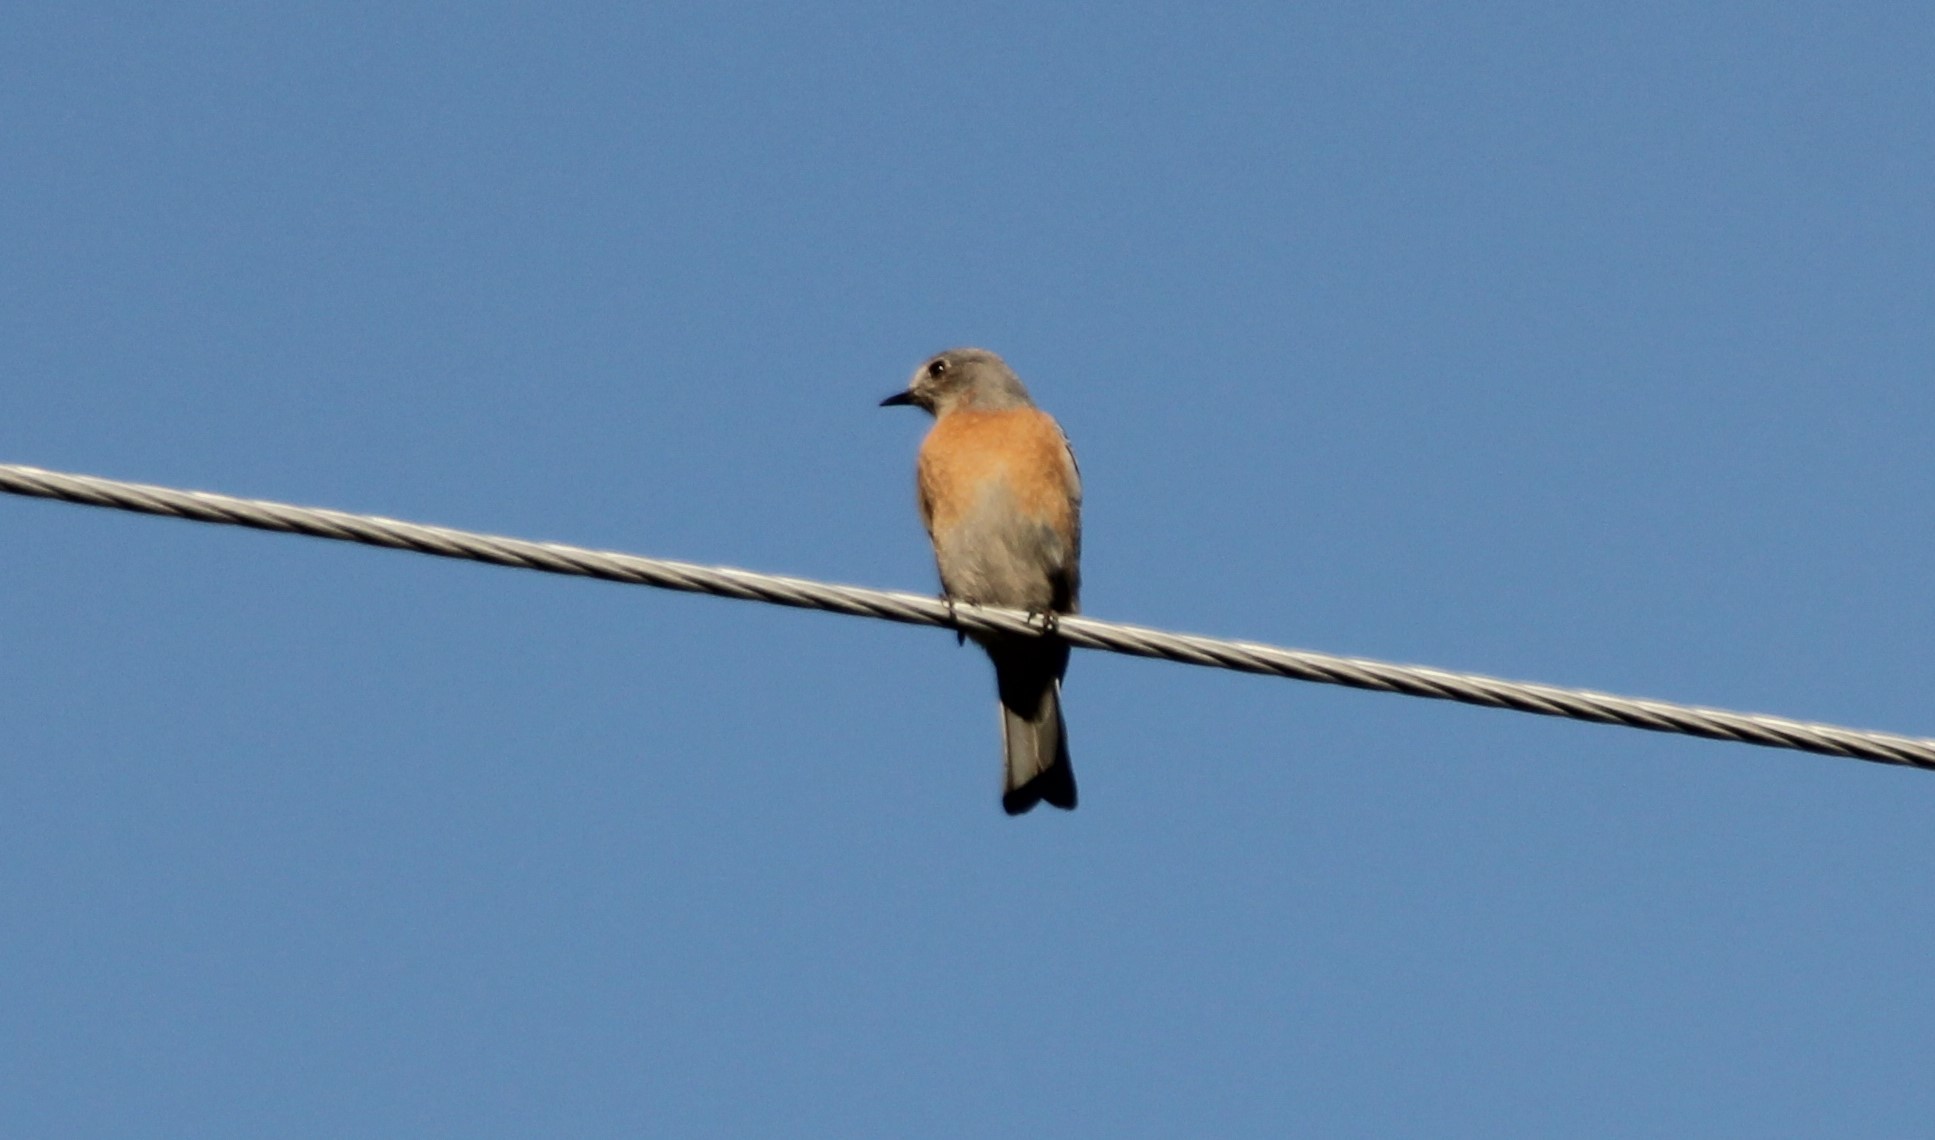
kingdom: Animalia
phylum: Chordata
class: Aves
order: Passeriformes
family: Turdidae
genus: Sialia
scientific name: Sialia mexicana
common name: Western bluebird
